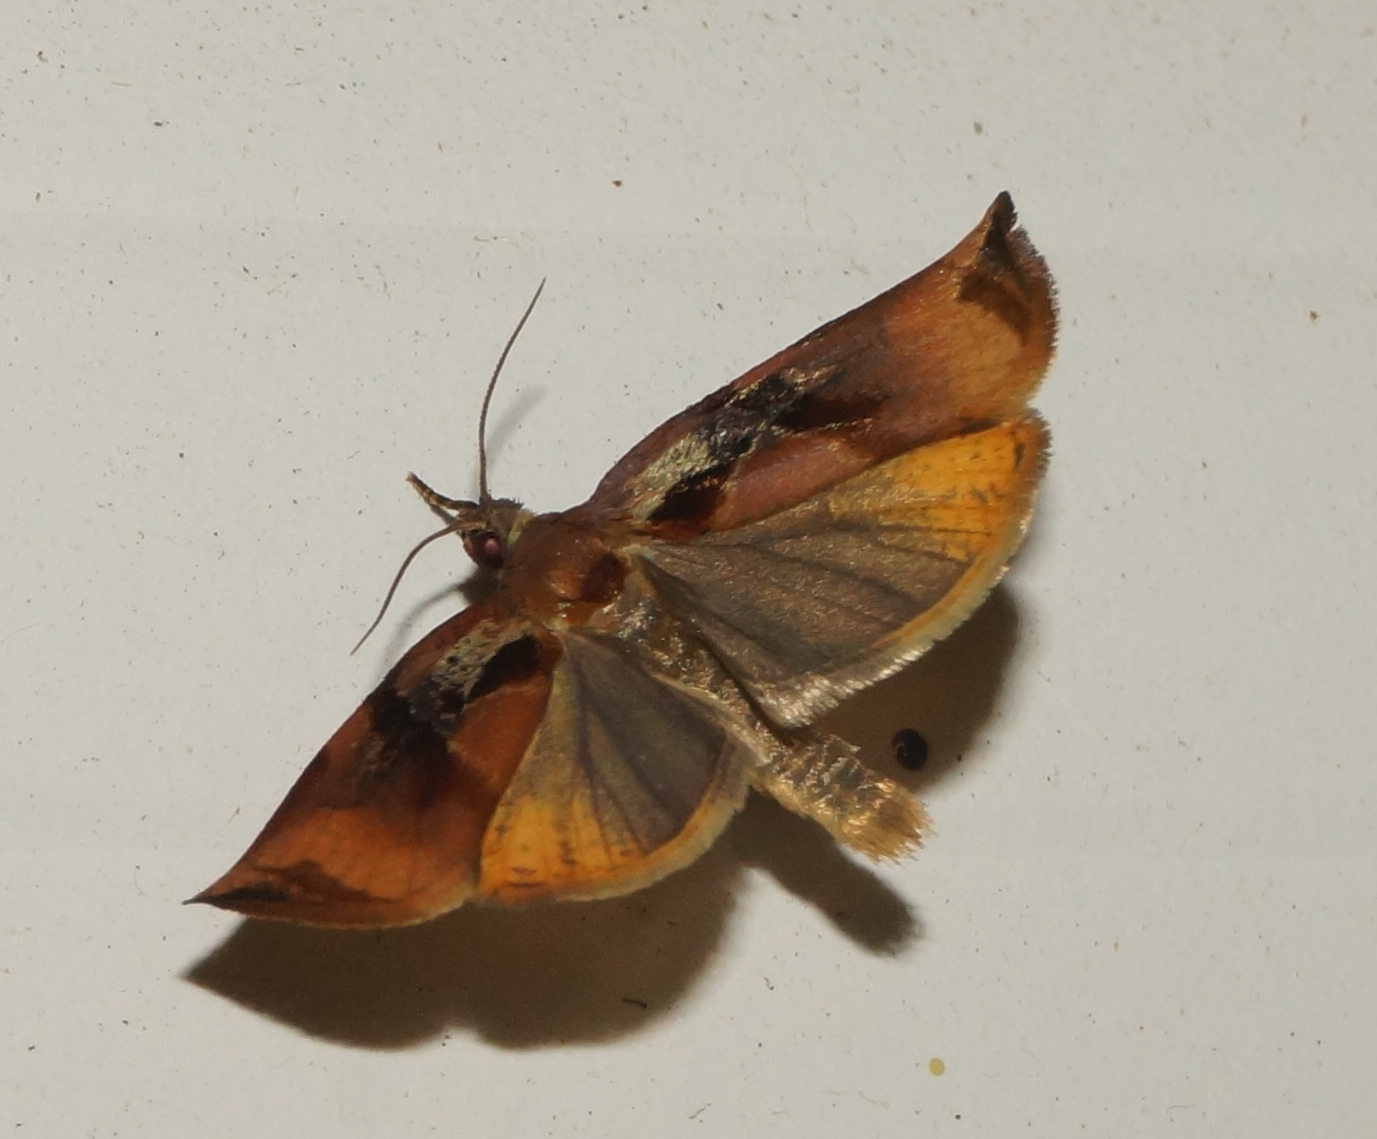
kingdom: Animalia
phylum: Arthropoda
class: Insecta
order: Lepidoptera
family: Tortricidae
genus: Archips
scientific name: Archips podana
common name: Large fruit-tree tortrix
